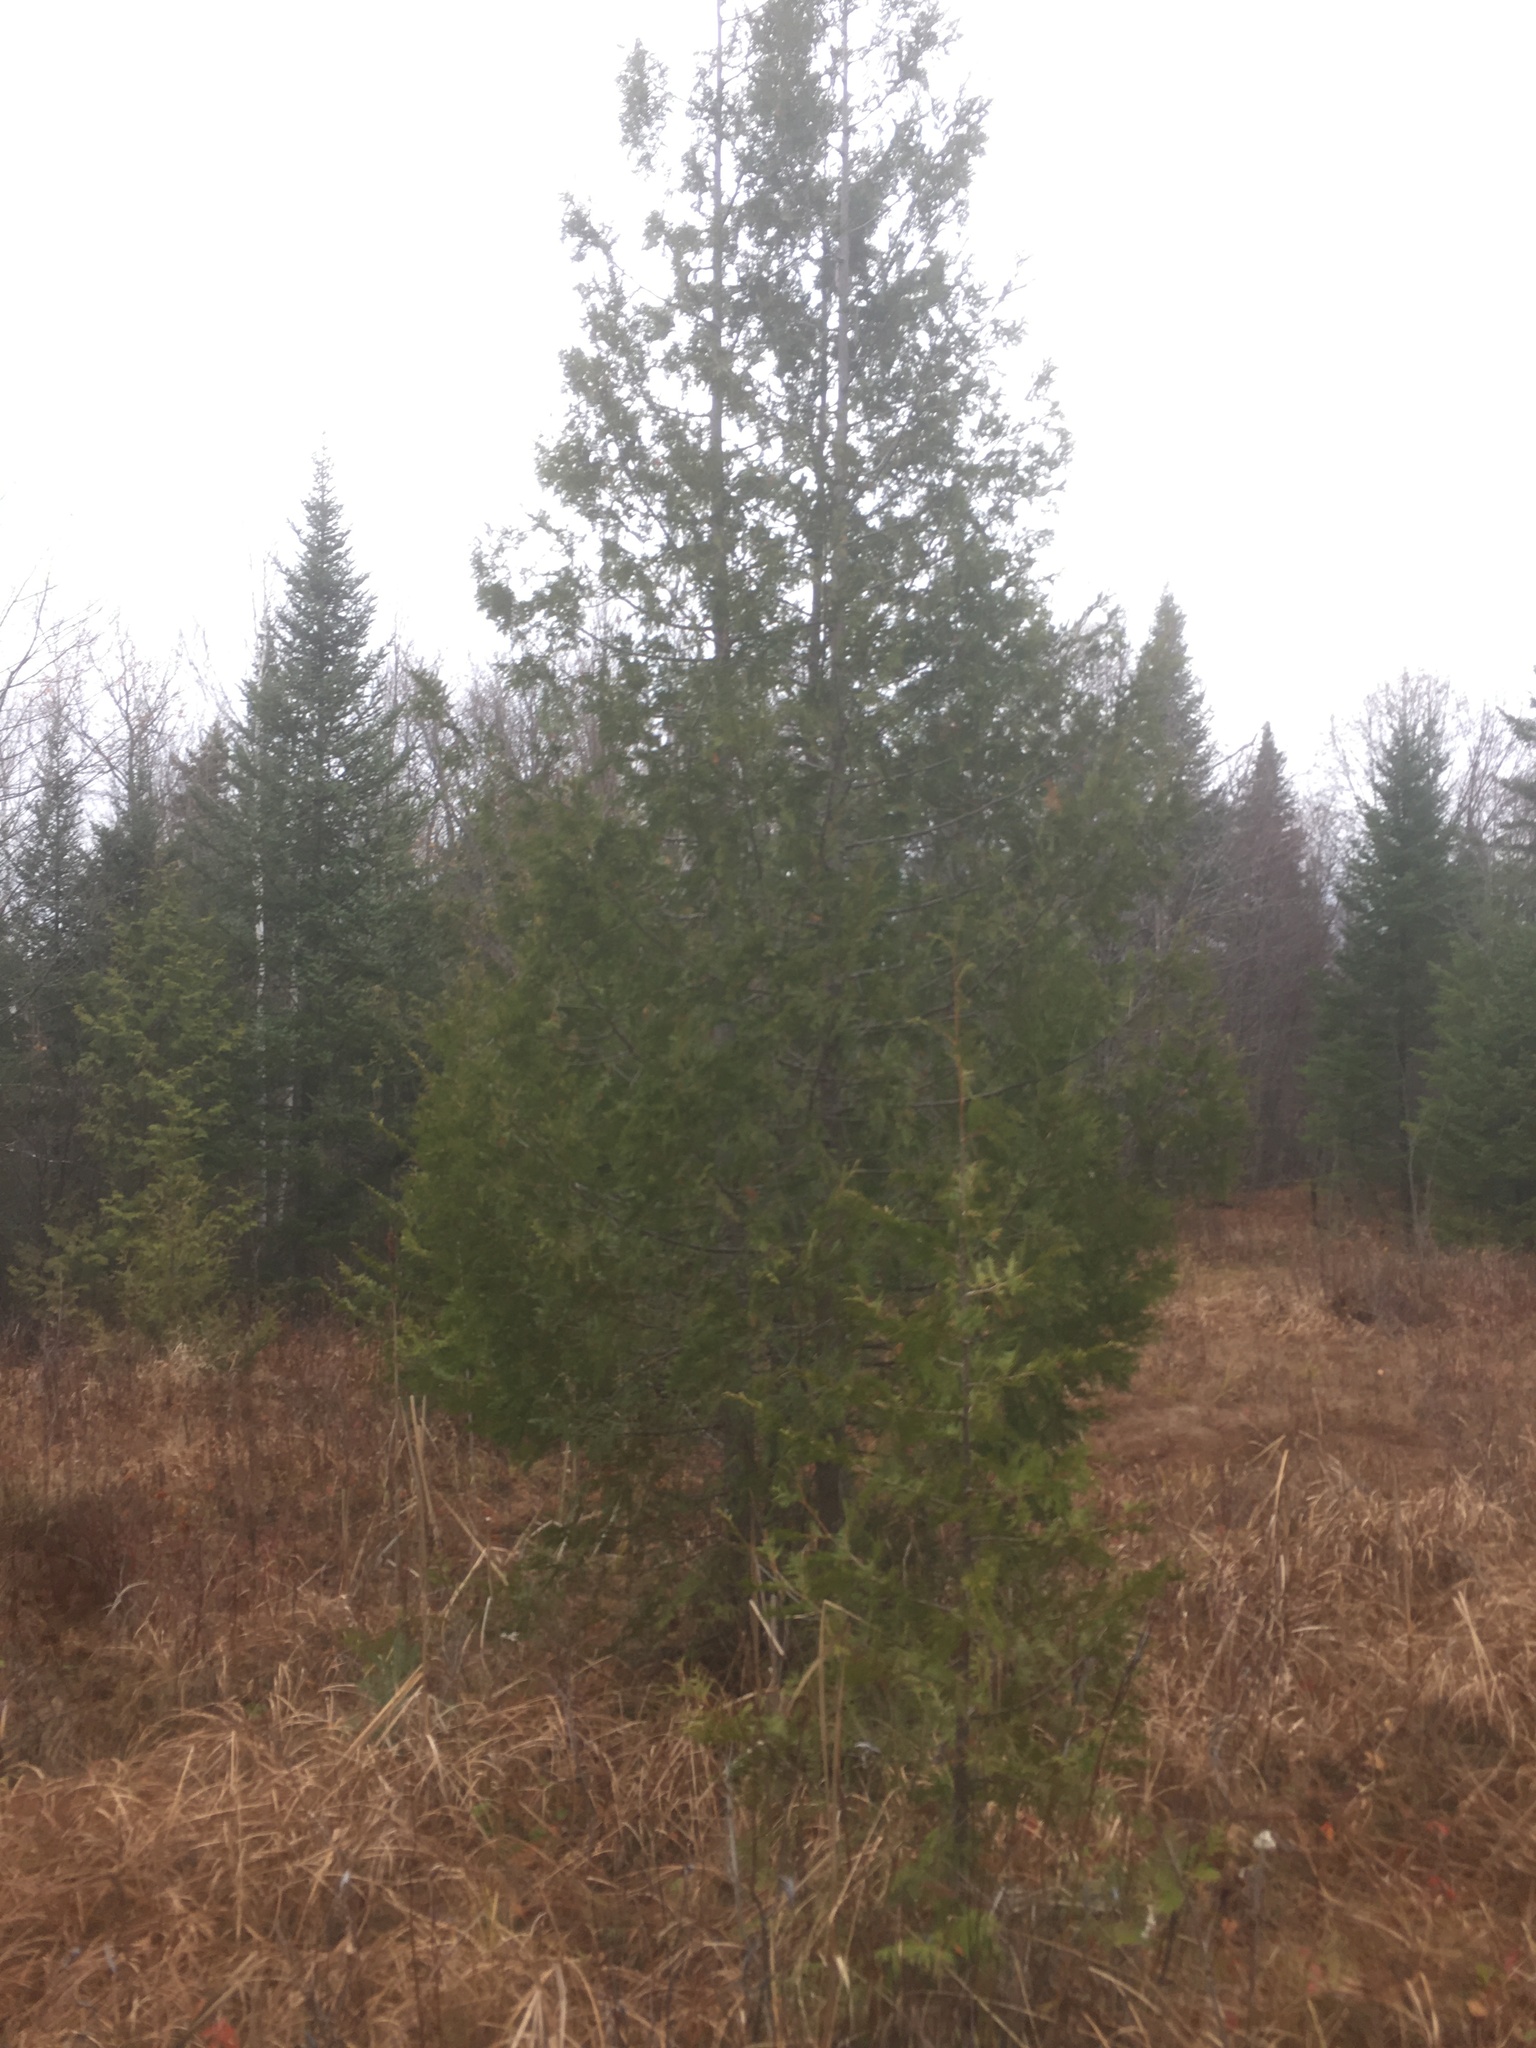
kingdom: Plantae
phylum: Tracheophyta
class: Pinopsida
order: Pinales
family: Cupressaceae
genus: Thuja
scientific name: Thuja occidentalis
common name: Northern white-cedar
